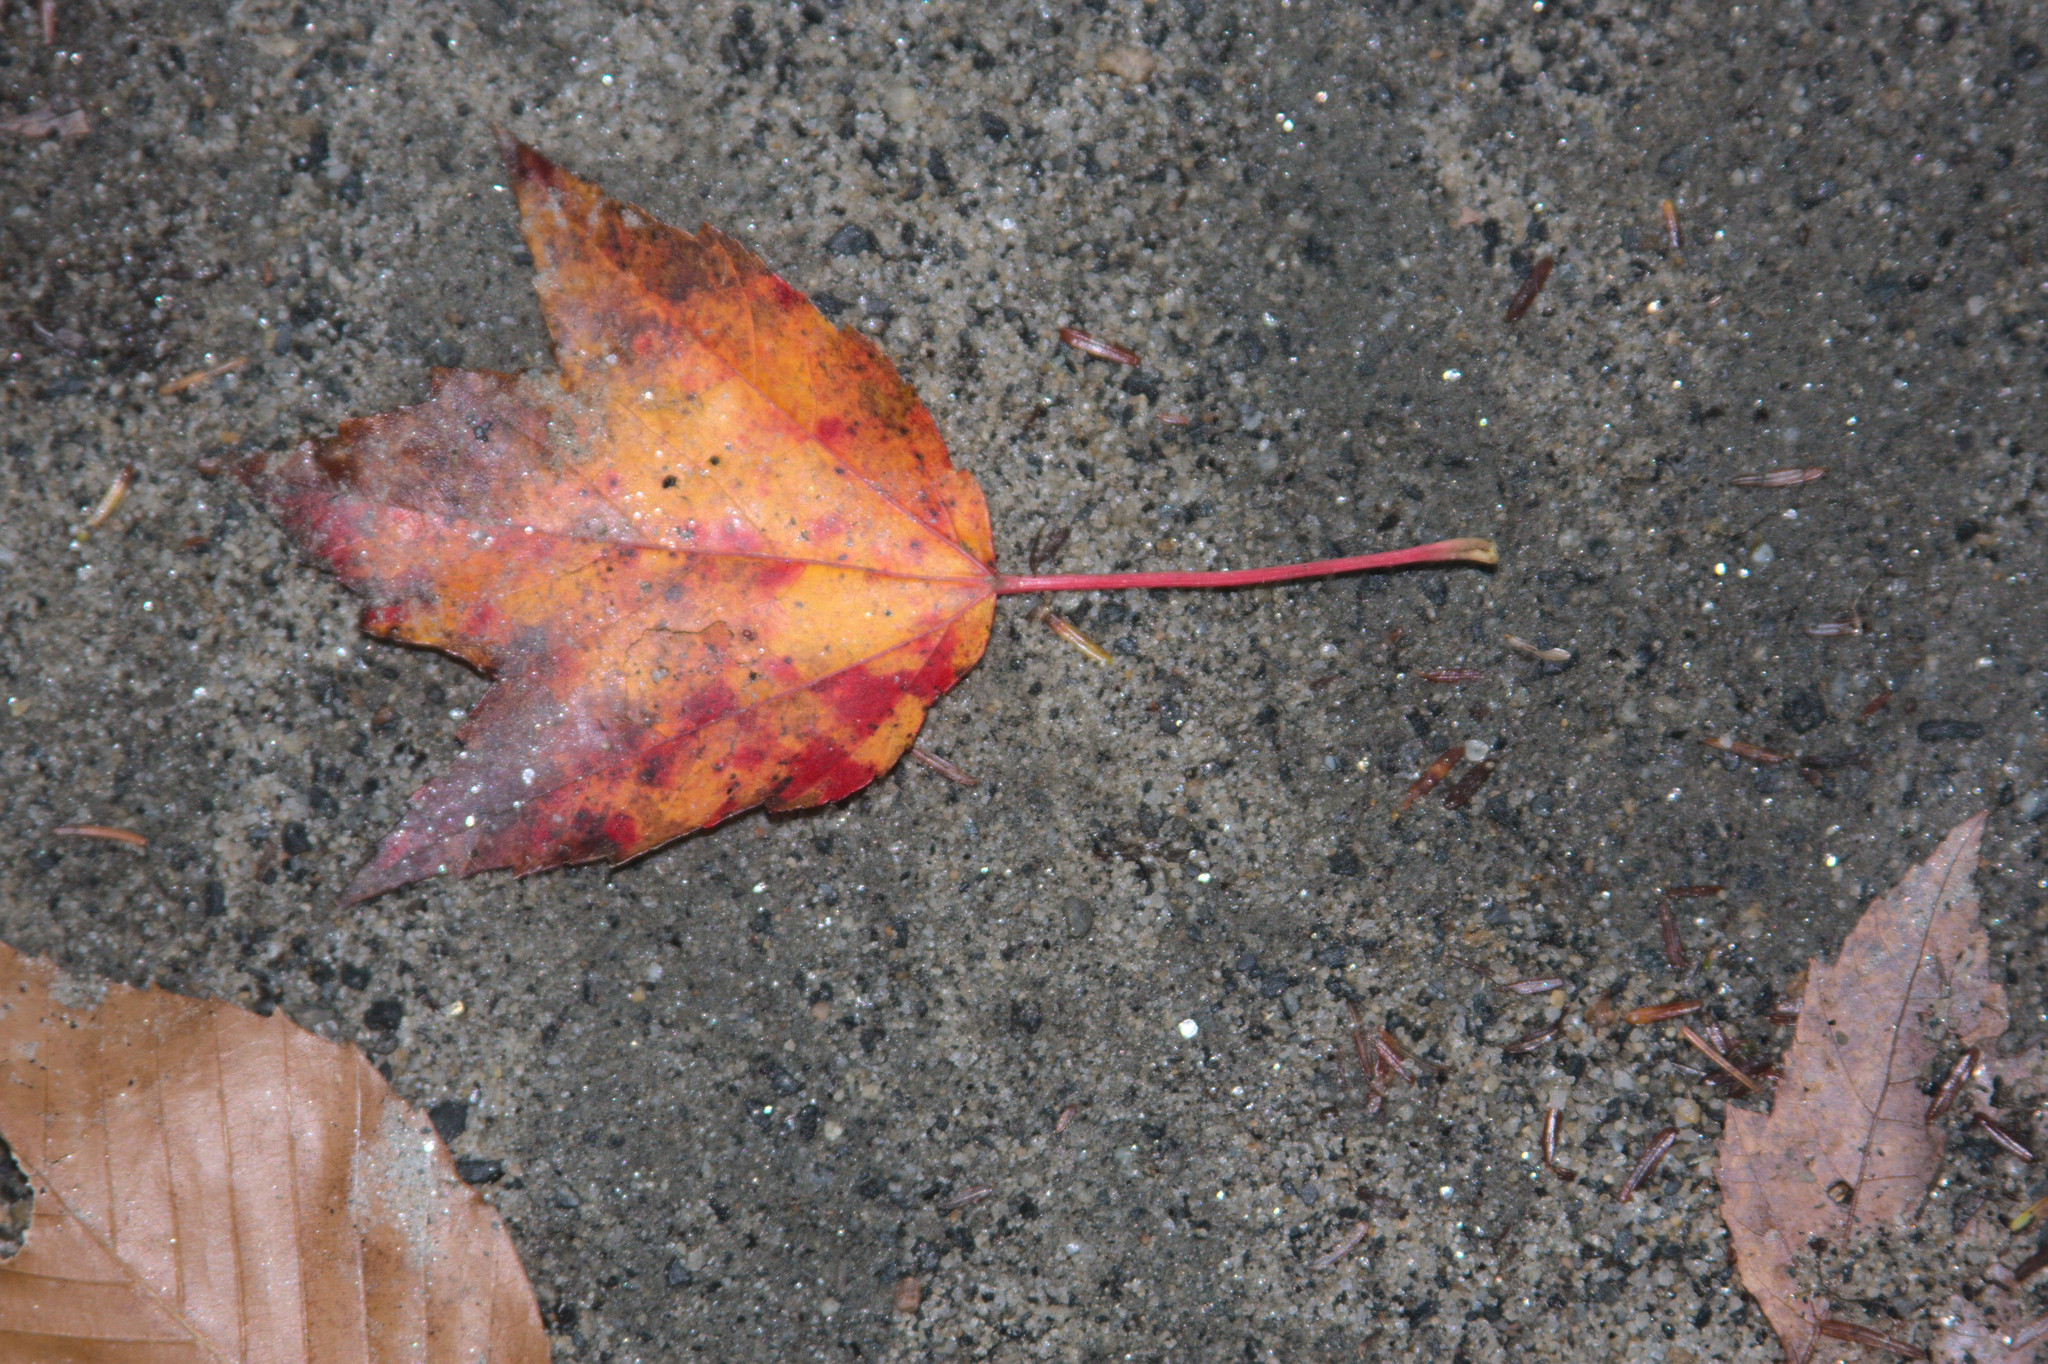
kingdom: Plantae
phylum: Tracheophyta
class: Magnoliopsida
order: Sapindales
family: Sapindaceae
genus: Acer
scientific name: Acer rubrum
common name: Red maple
